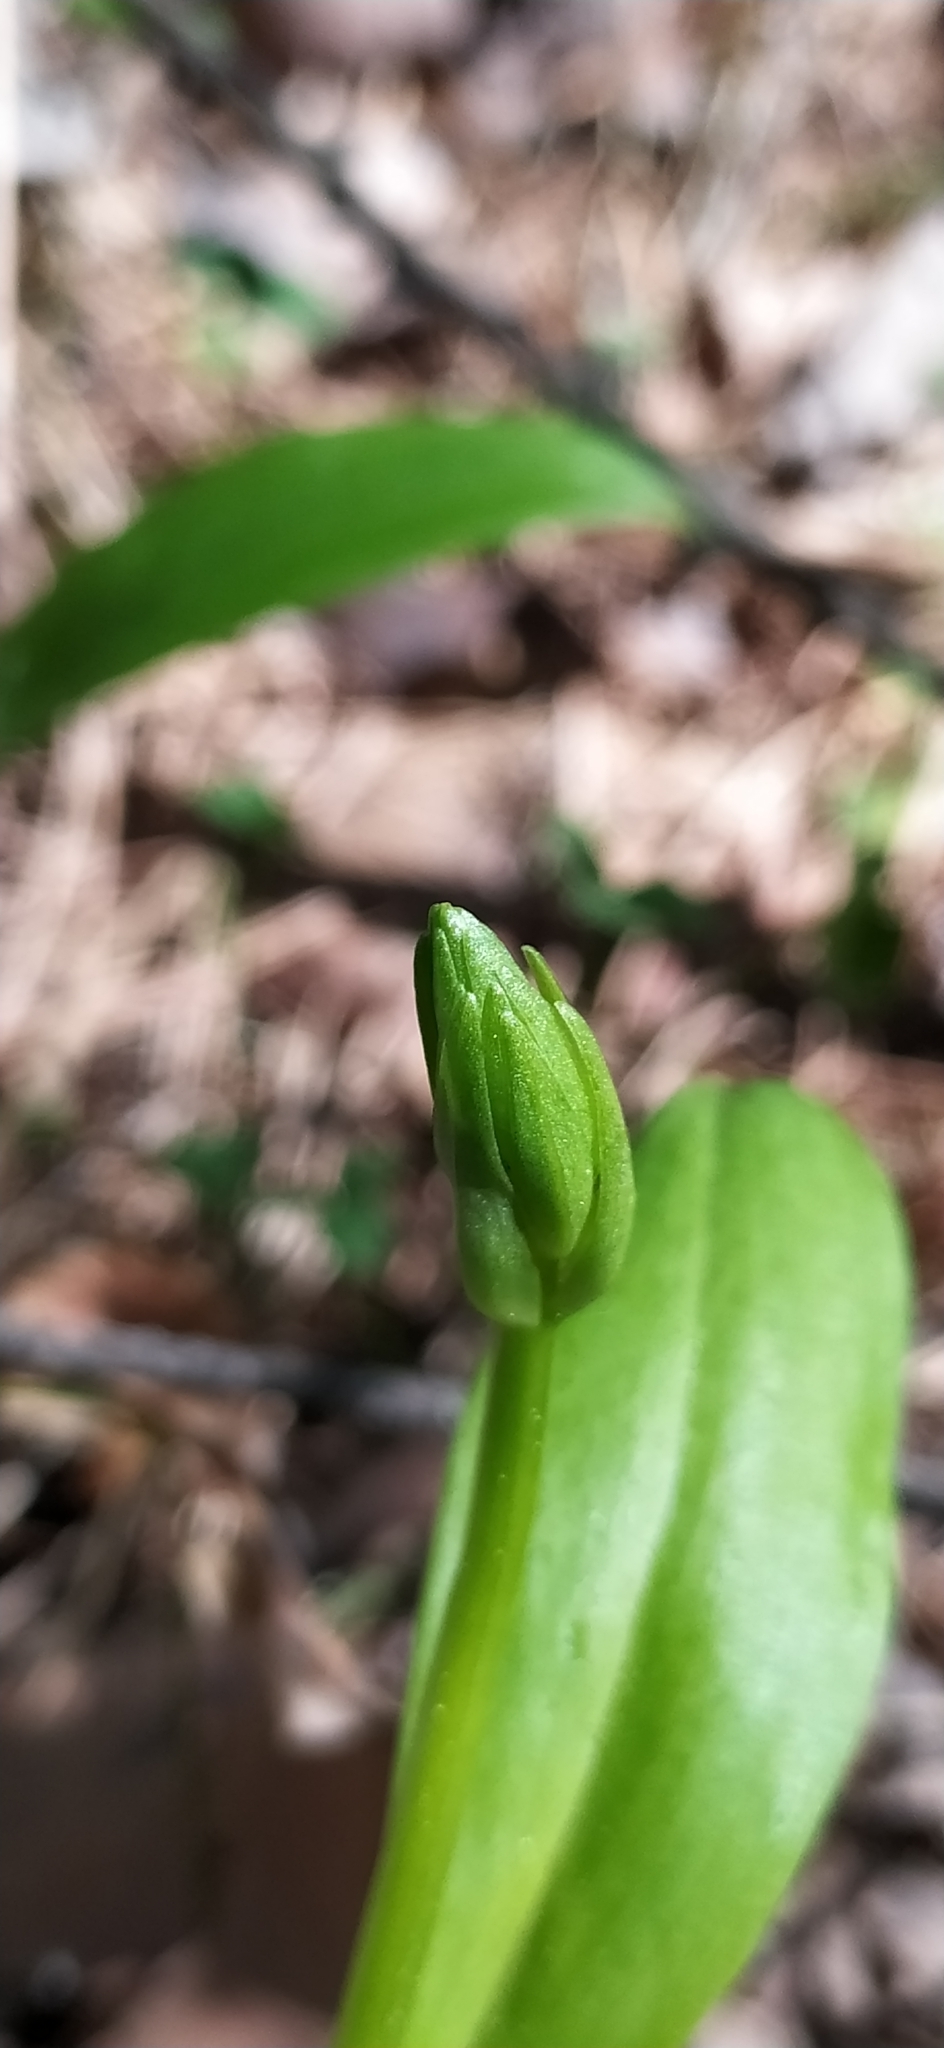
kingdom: Plantae
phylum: Tracheophyta
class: Liliopsida
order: Asparagales
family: Orchidaceae
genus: Platanthera
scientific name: Platanthera bifolia
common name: Lesser butterfly-orchid
